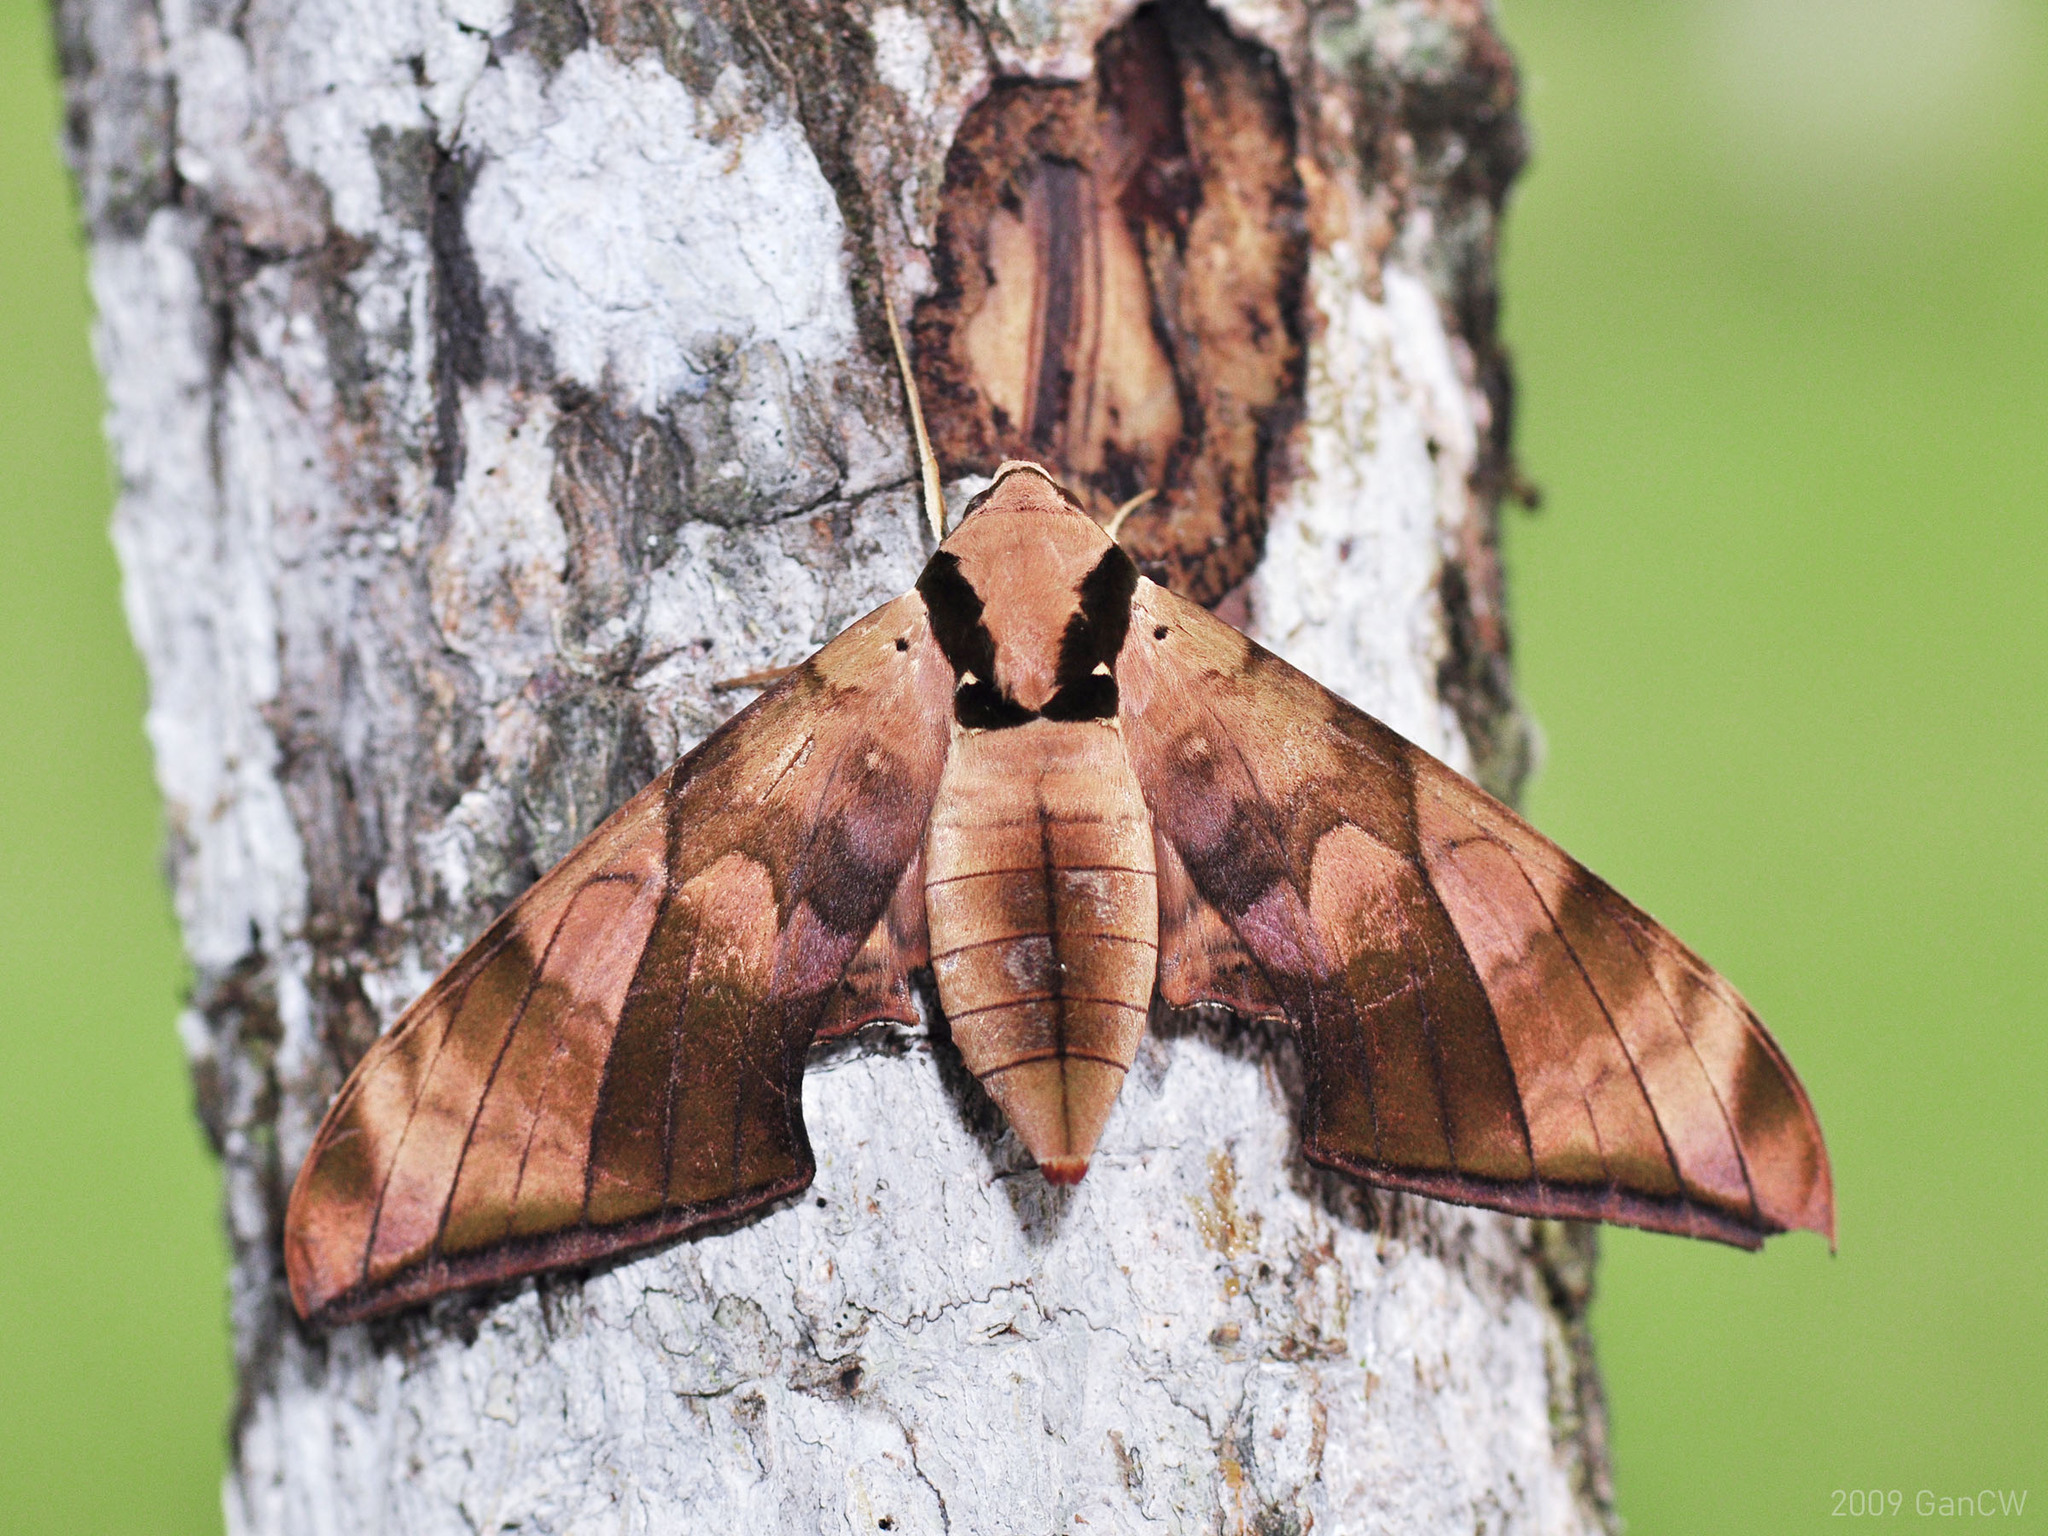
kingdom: Animalia
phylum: Arthropoda
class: Insecta
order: Lepidoptera
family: Sphingidae
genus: Ambulyx
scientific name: Ambulyx tattina
